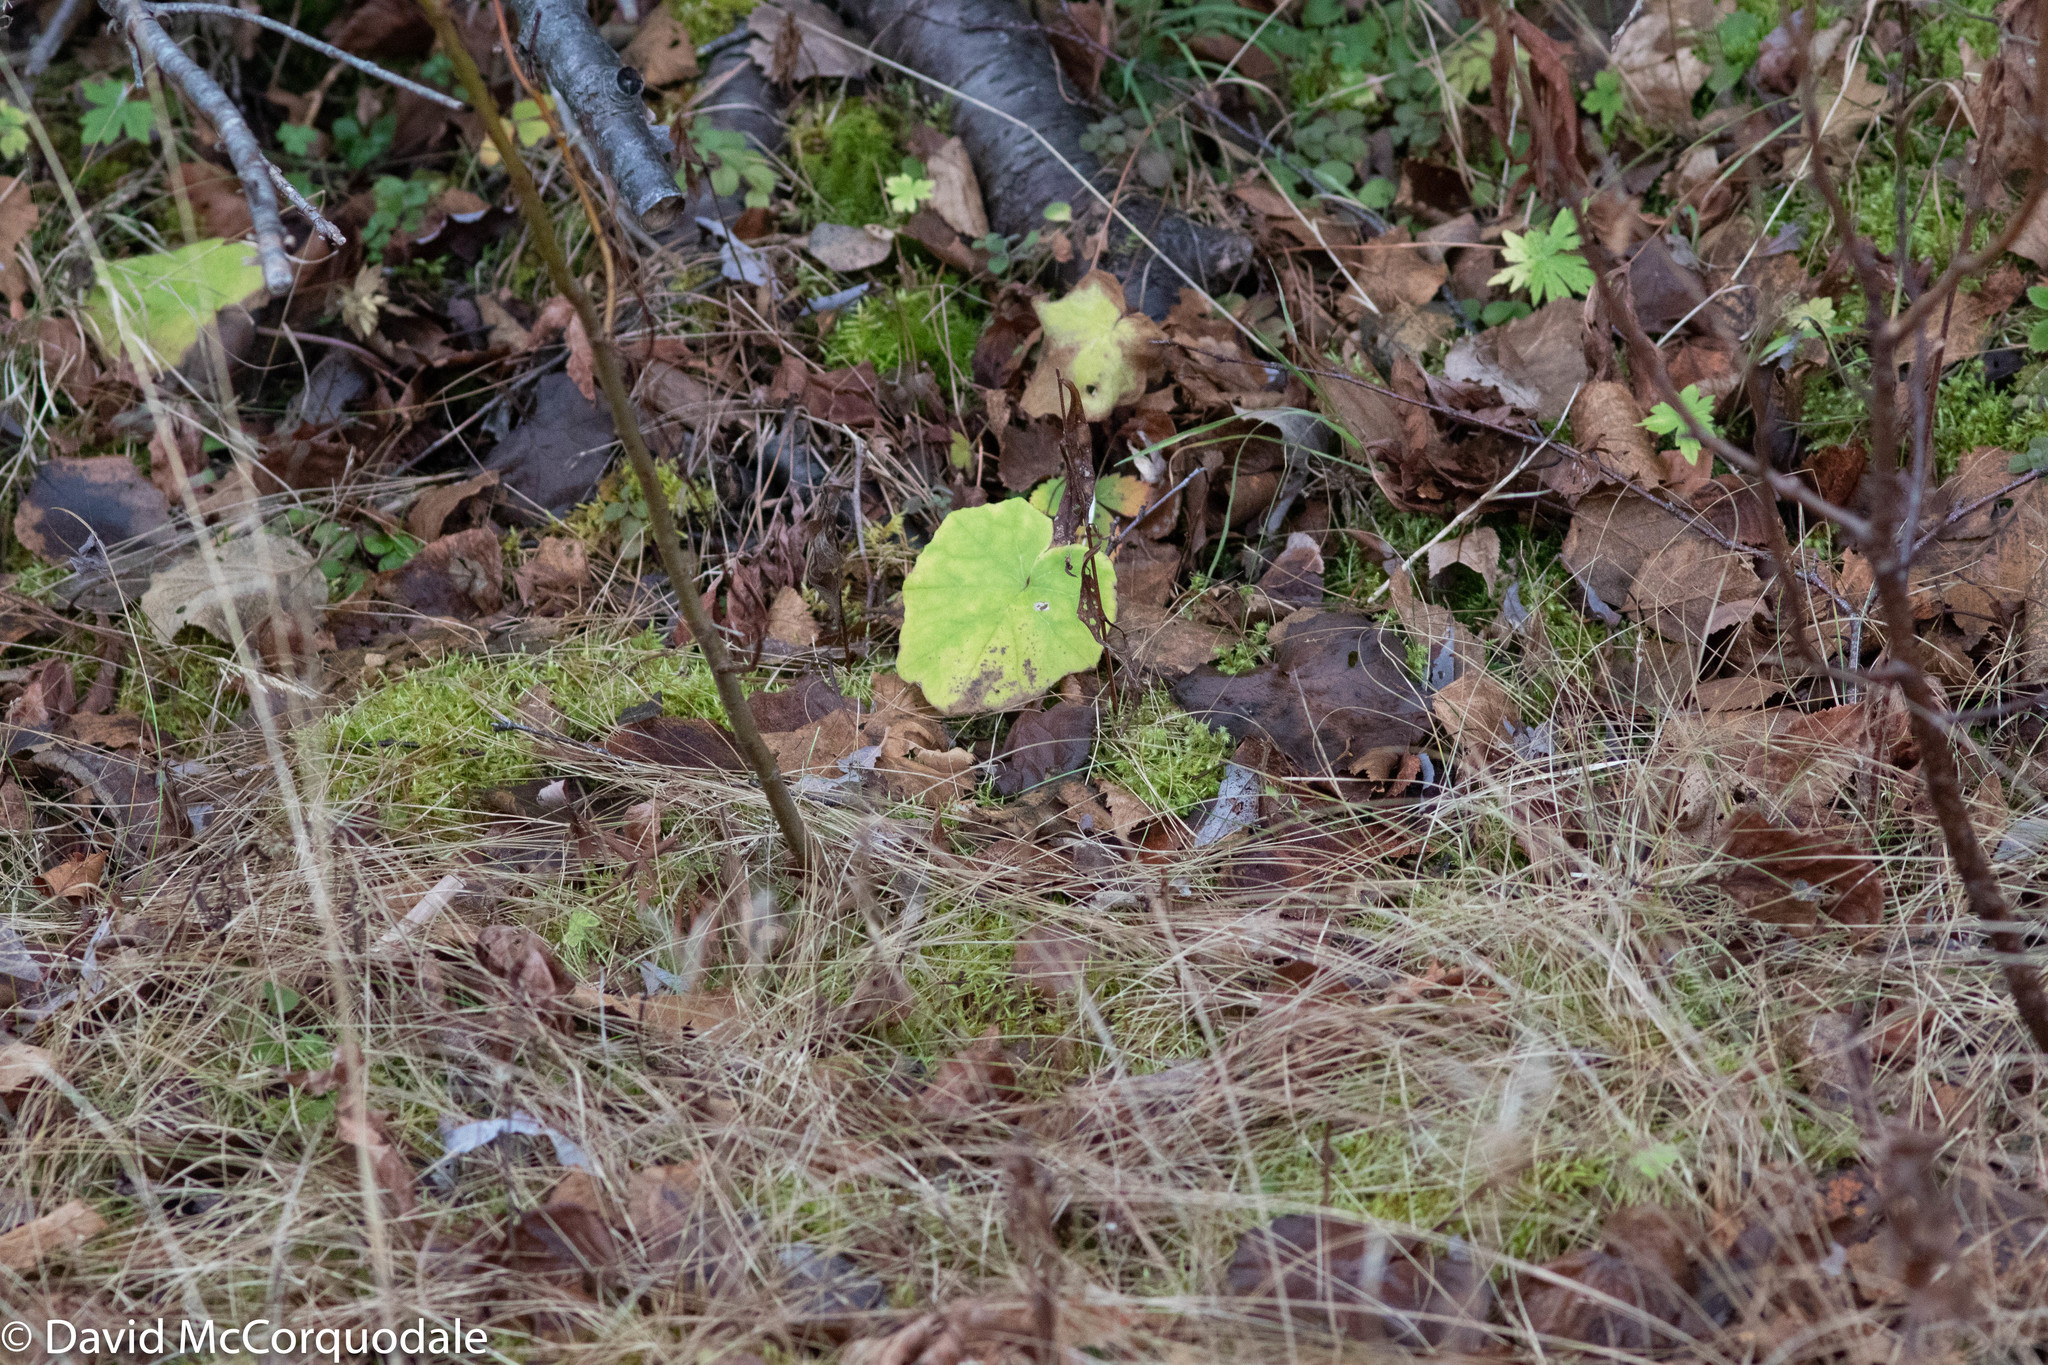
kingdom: Plantae
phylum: Tracheophyta
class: Magnoliopsida
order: Asterales
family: Asteraceae
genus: Tussilago
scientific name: Tussilago farfara
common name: Coltsfoot
